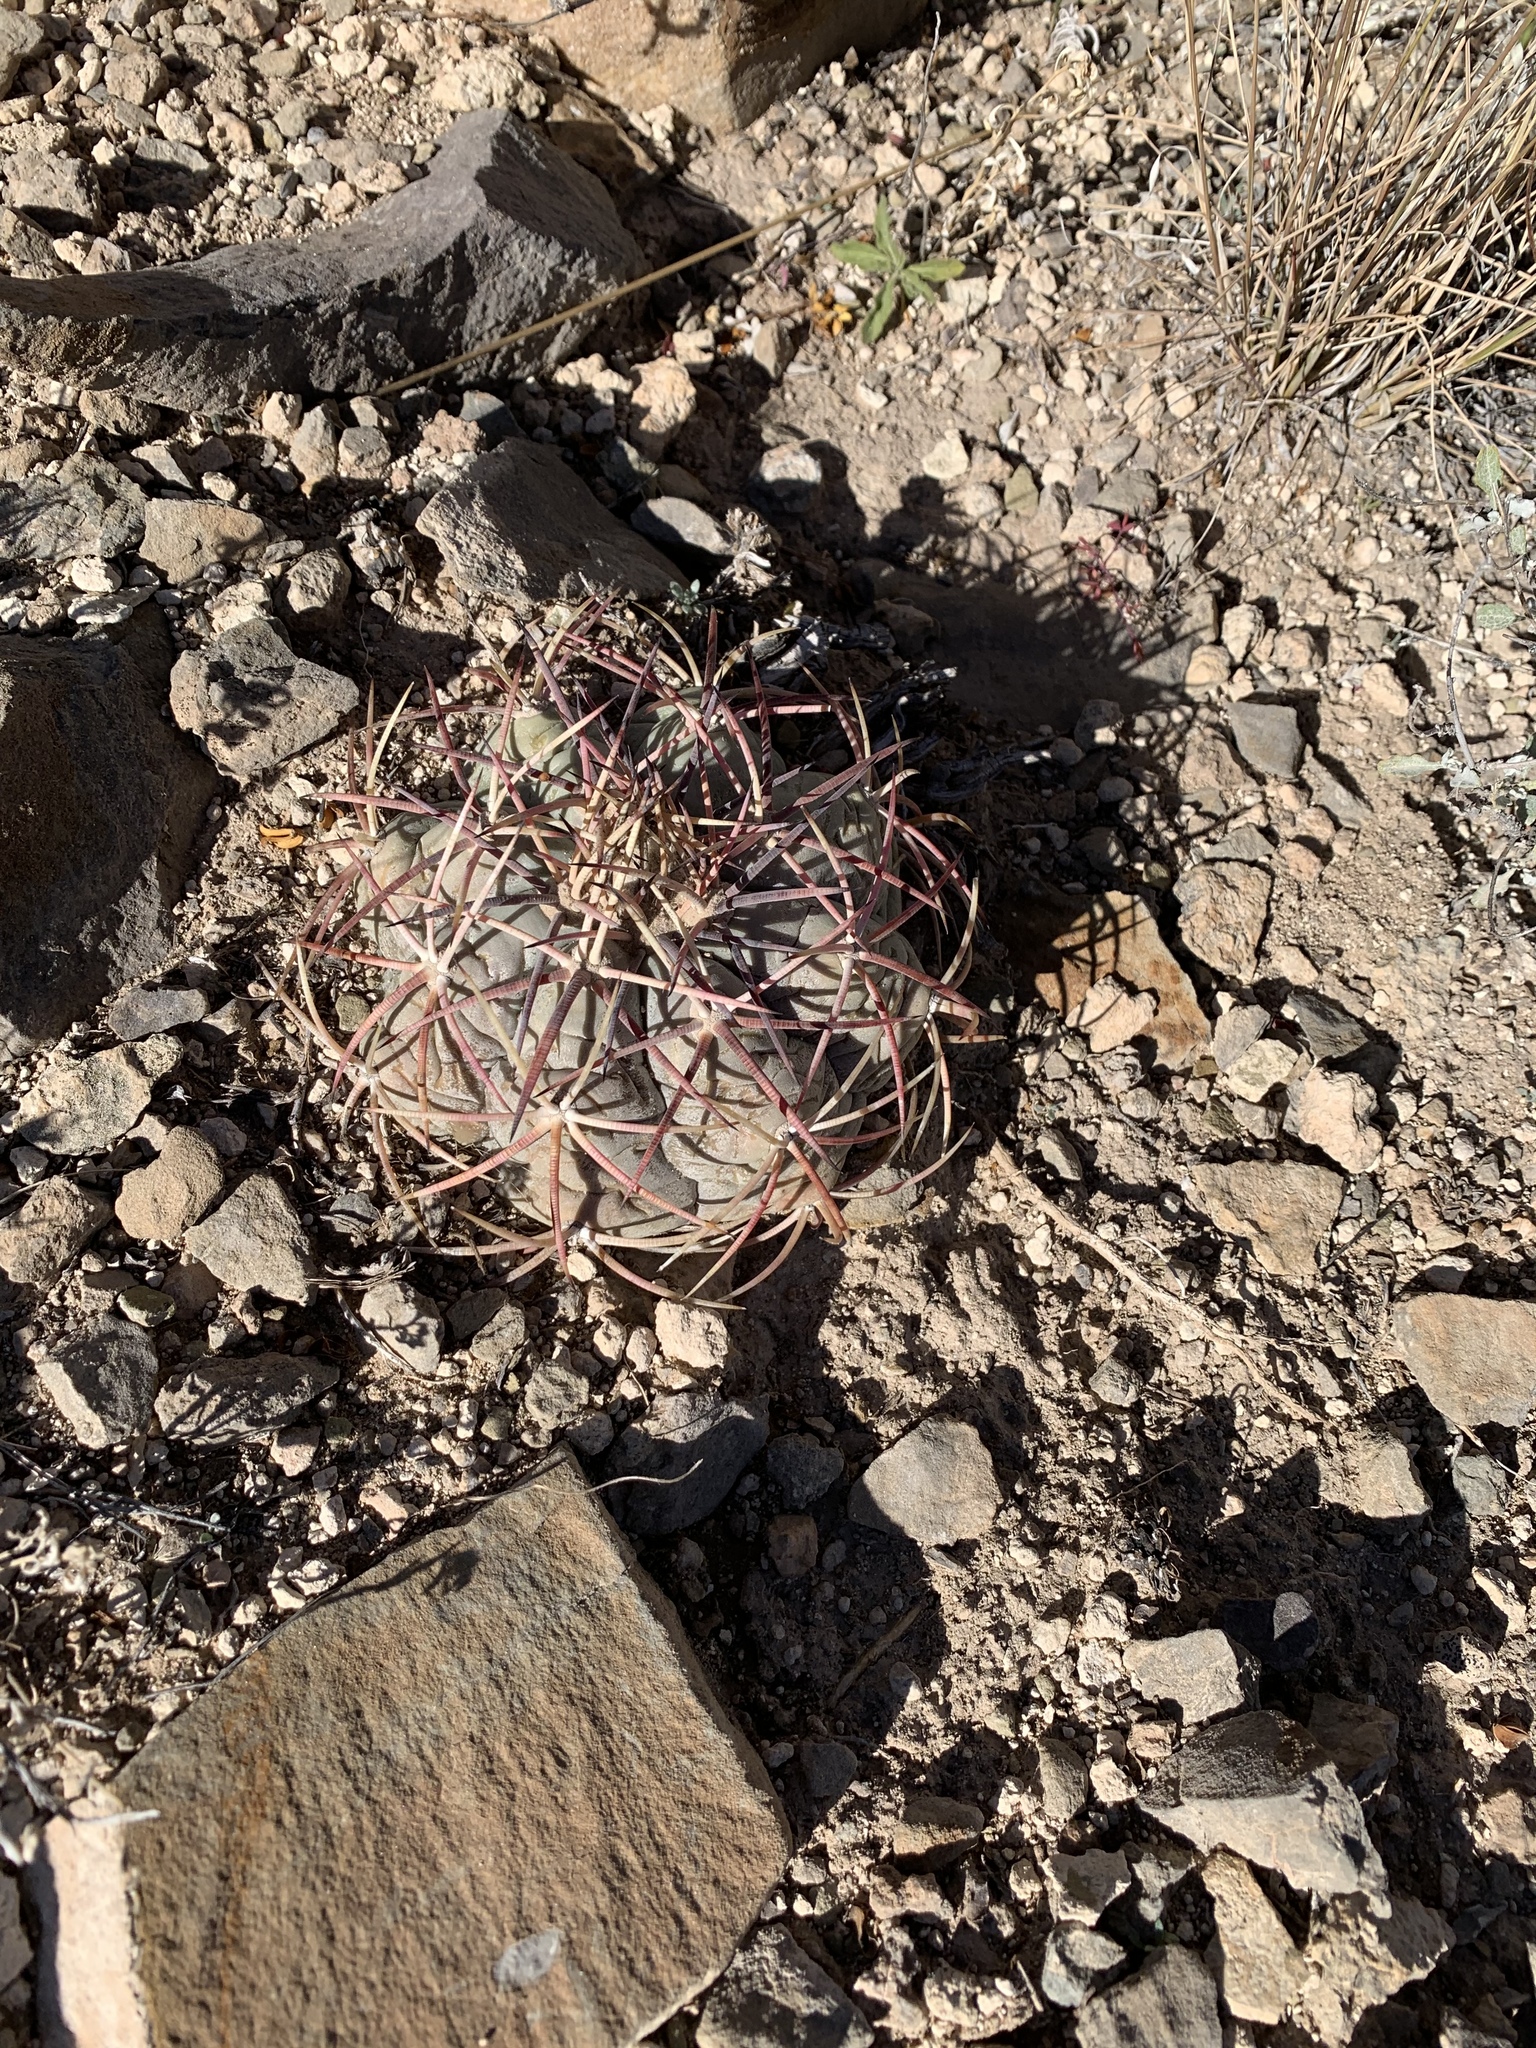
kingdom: Plantae
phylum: Tracheophyta
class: Magnoliopsida
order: Caryophyllales
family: Cactaceae
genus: Echinocactus
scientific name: Echinocactus horizonthalonius
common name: Devilshead
